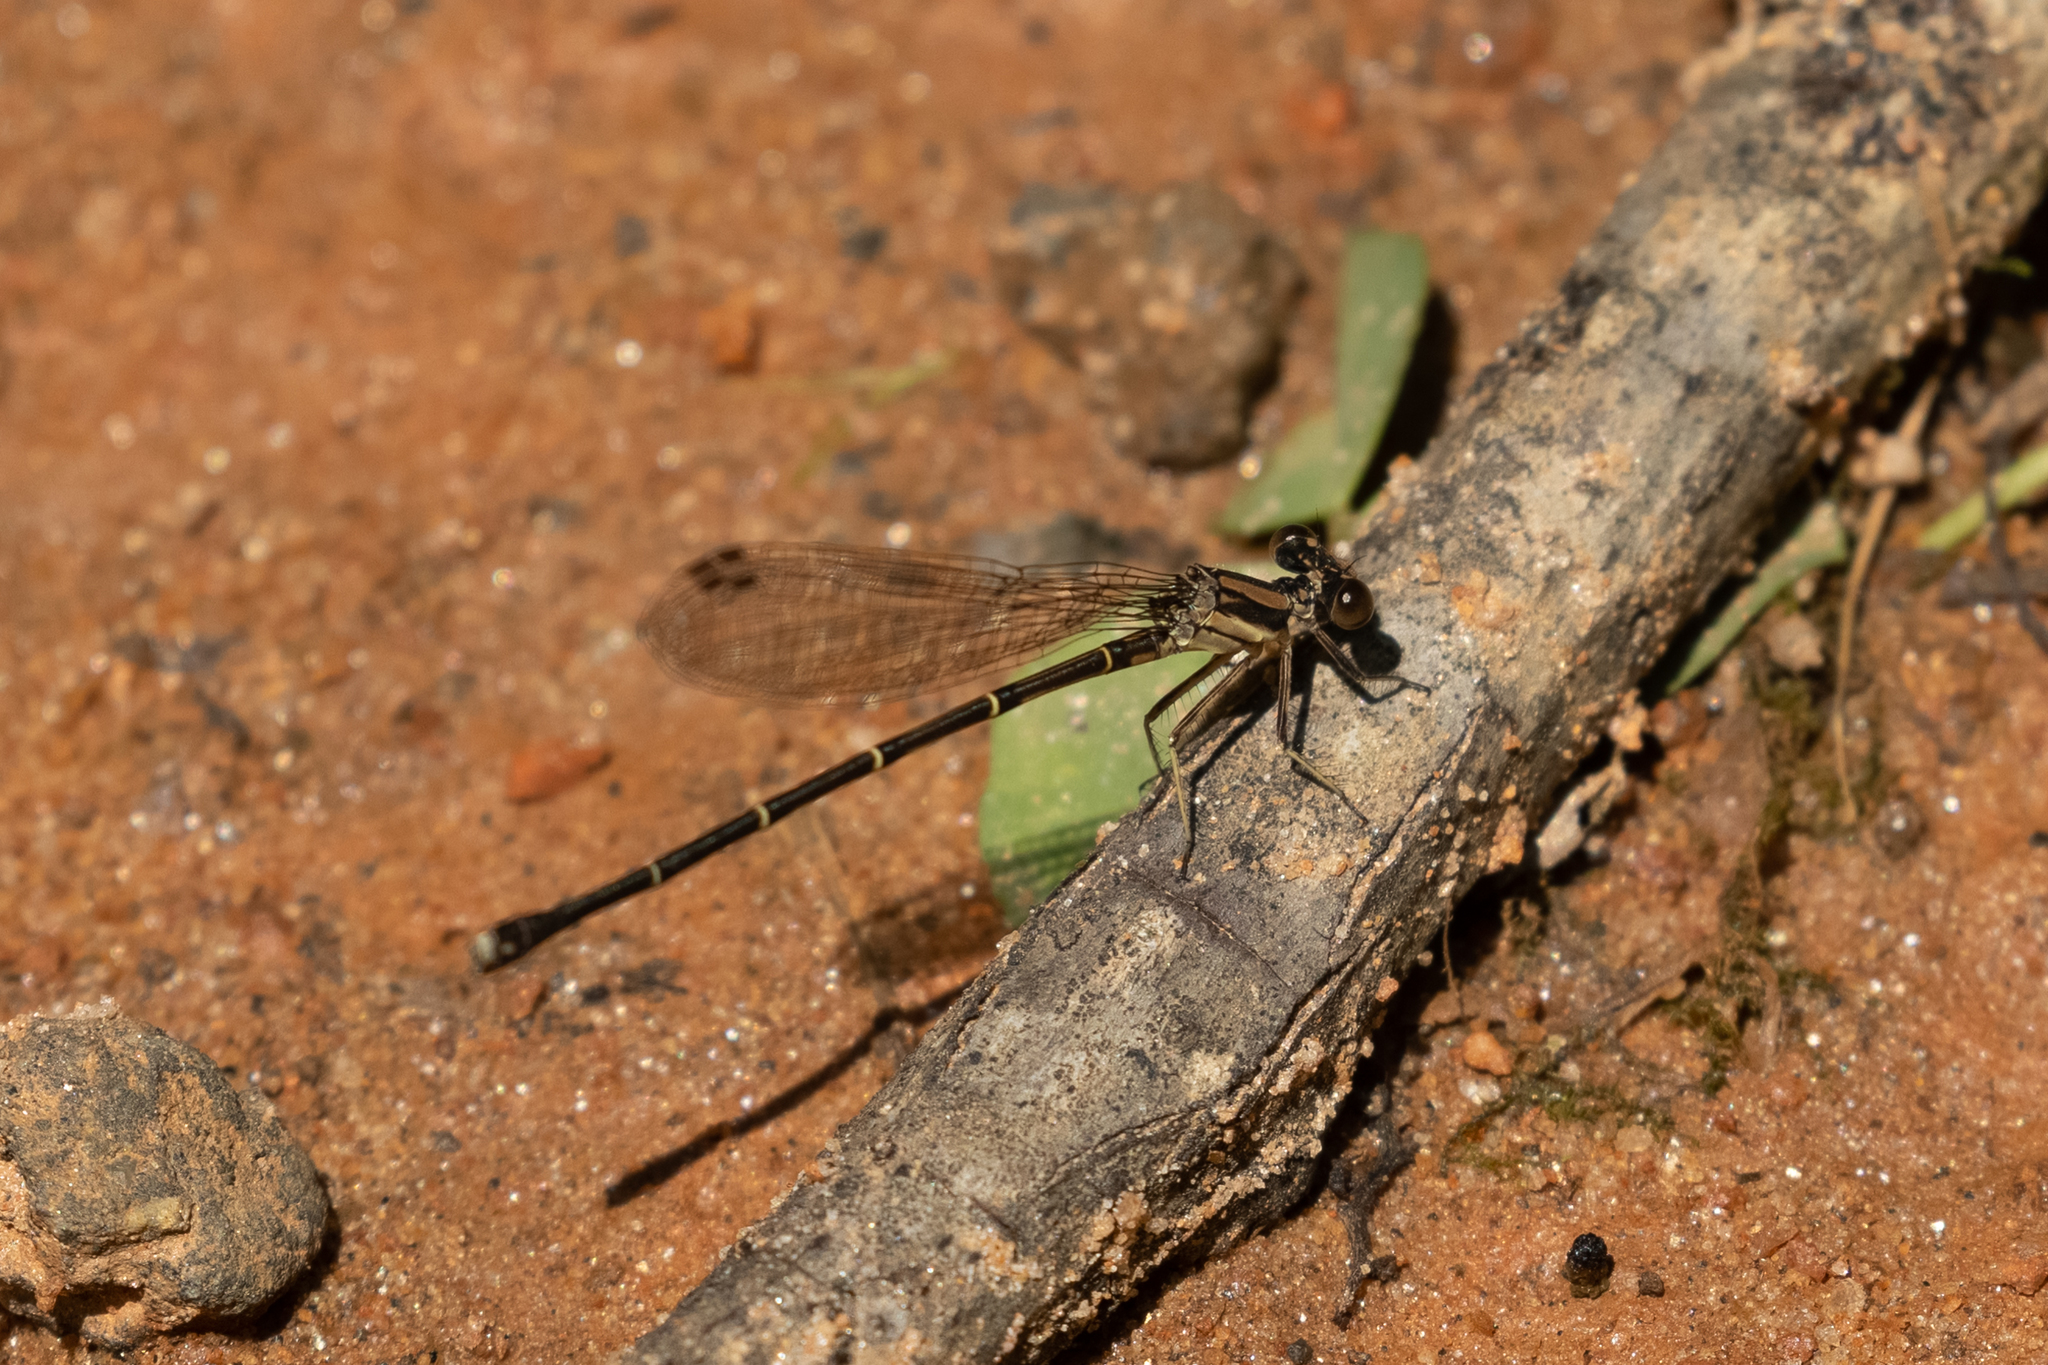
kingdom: Animalia
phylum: Arthropoda
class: Insecta
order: Odonata
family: Coenagrionidae
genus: Argia
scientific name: Argia tibialis
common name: Blue-tipped dancer
